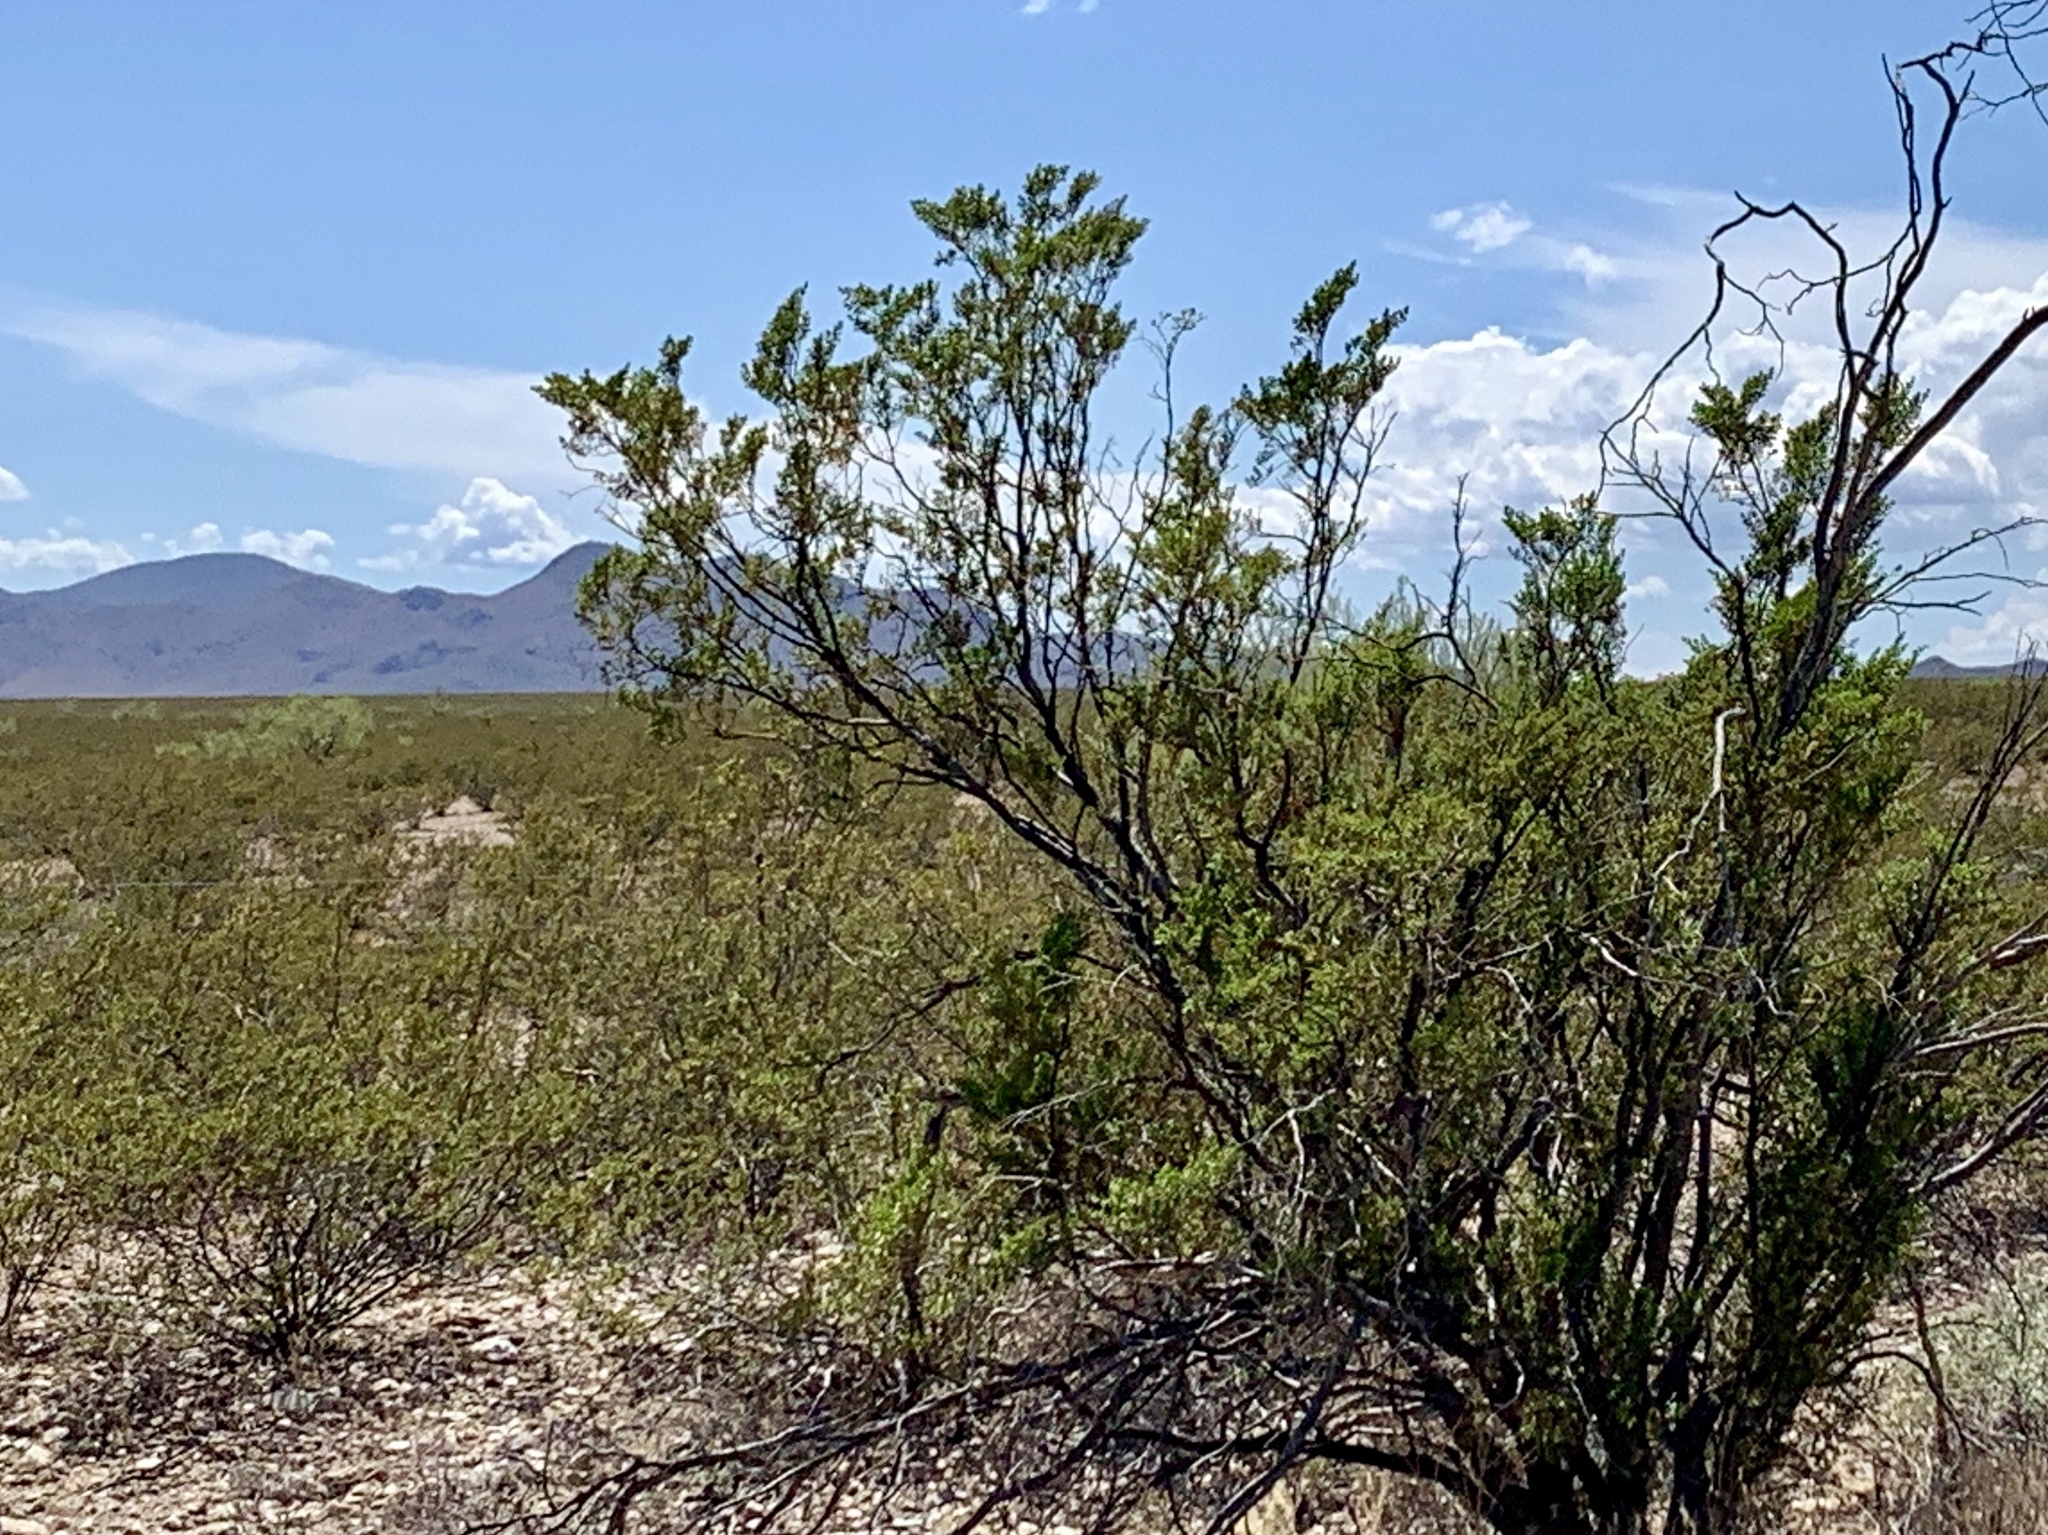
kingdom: Plantae
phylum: Tracheophyta
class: Magnoliopsida
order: Zygophyllales
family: Zygophyllaceae
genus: Larrea
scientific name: Larrea tridentata
